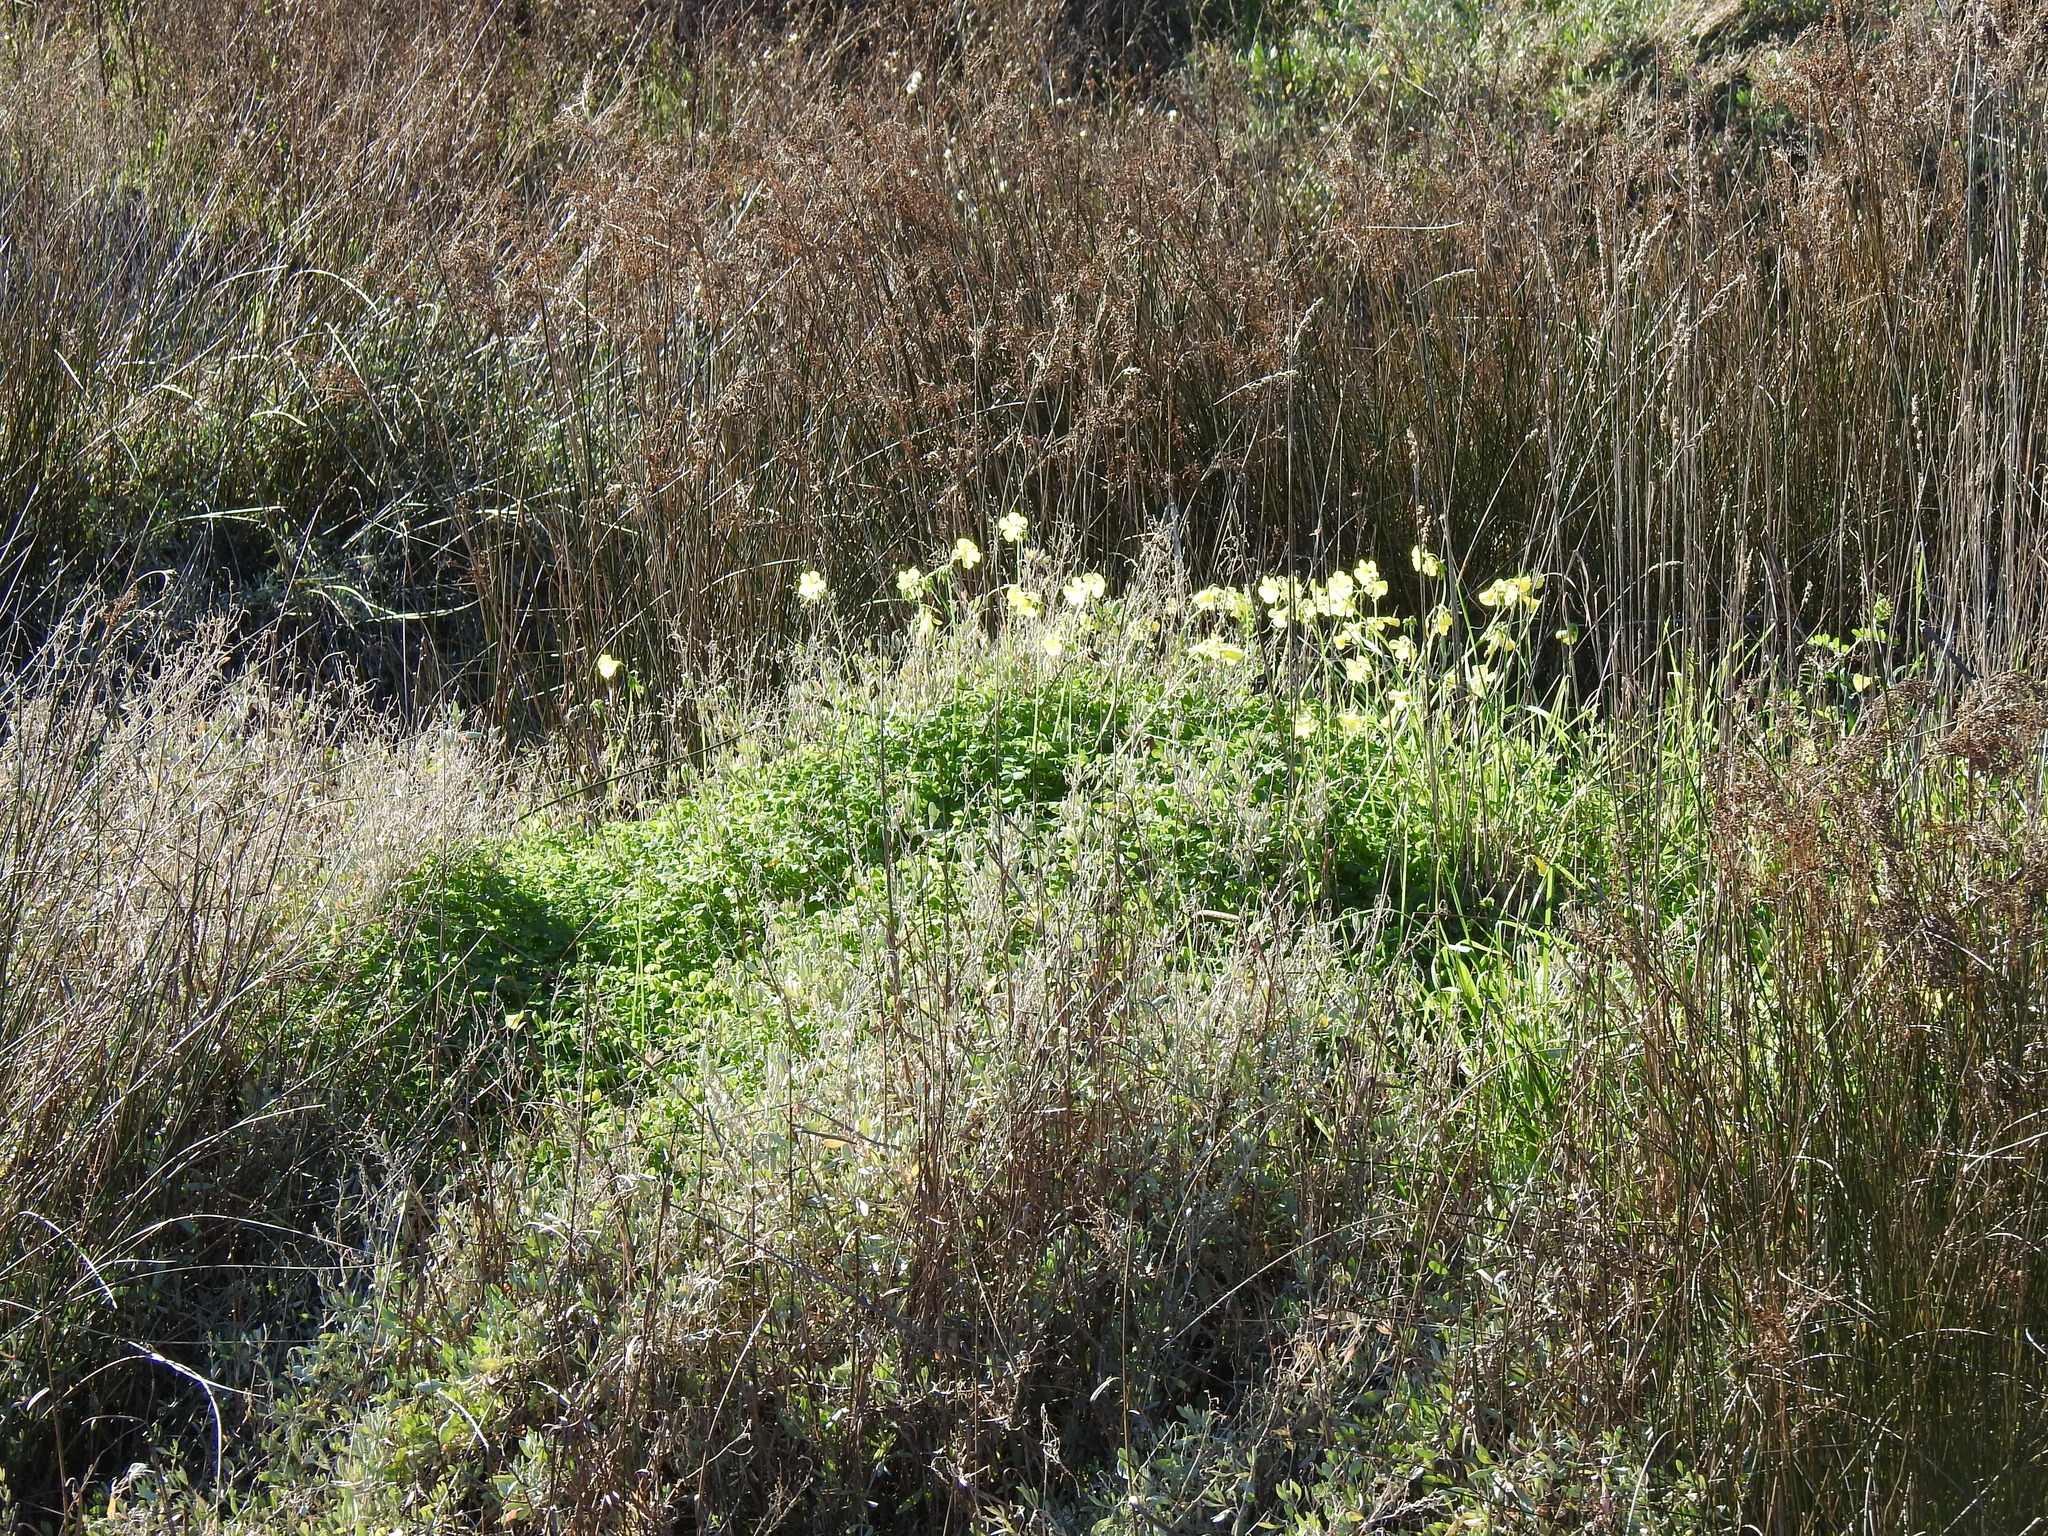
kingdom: Plantae
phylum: Tracheophyta
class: Magnoliopsida
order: Oxalidales
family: Oxalidaceae
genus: Oxalis
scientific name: Oxalis pes-caprae
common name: Bermuda-buttercup
